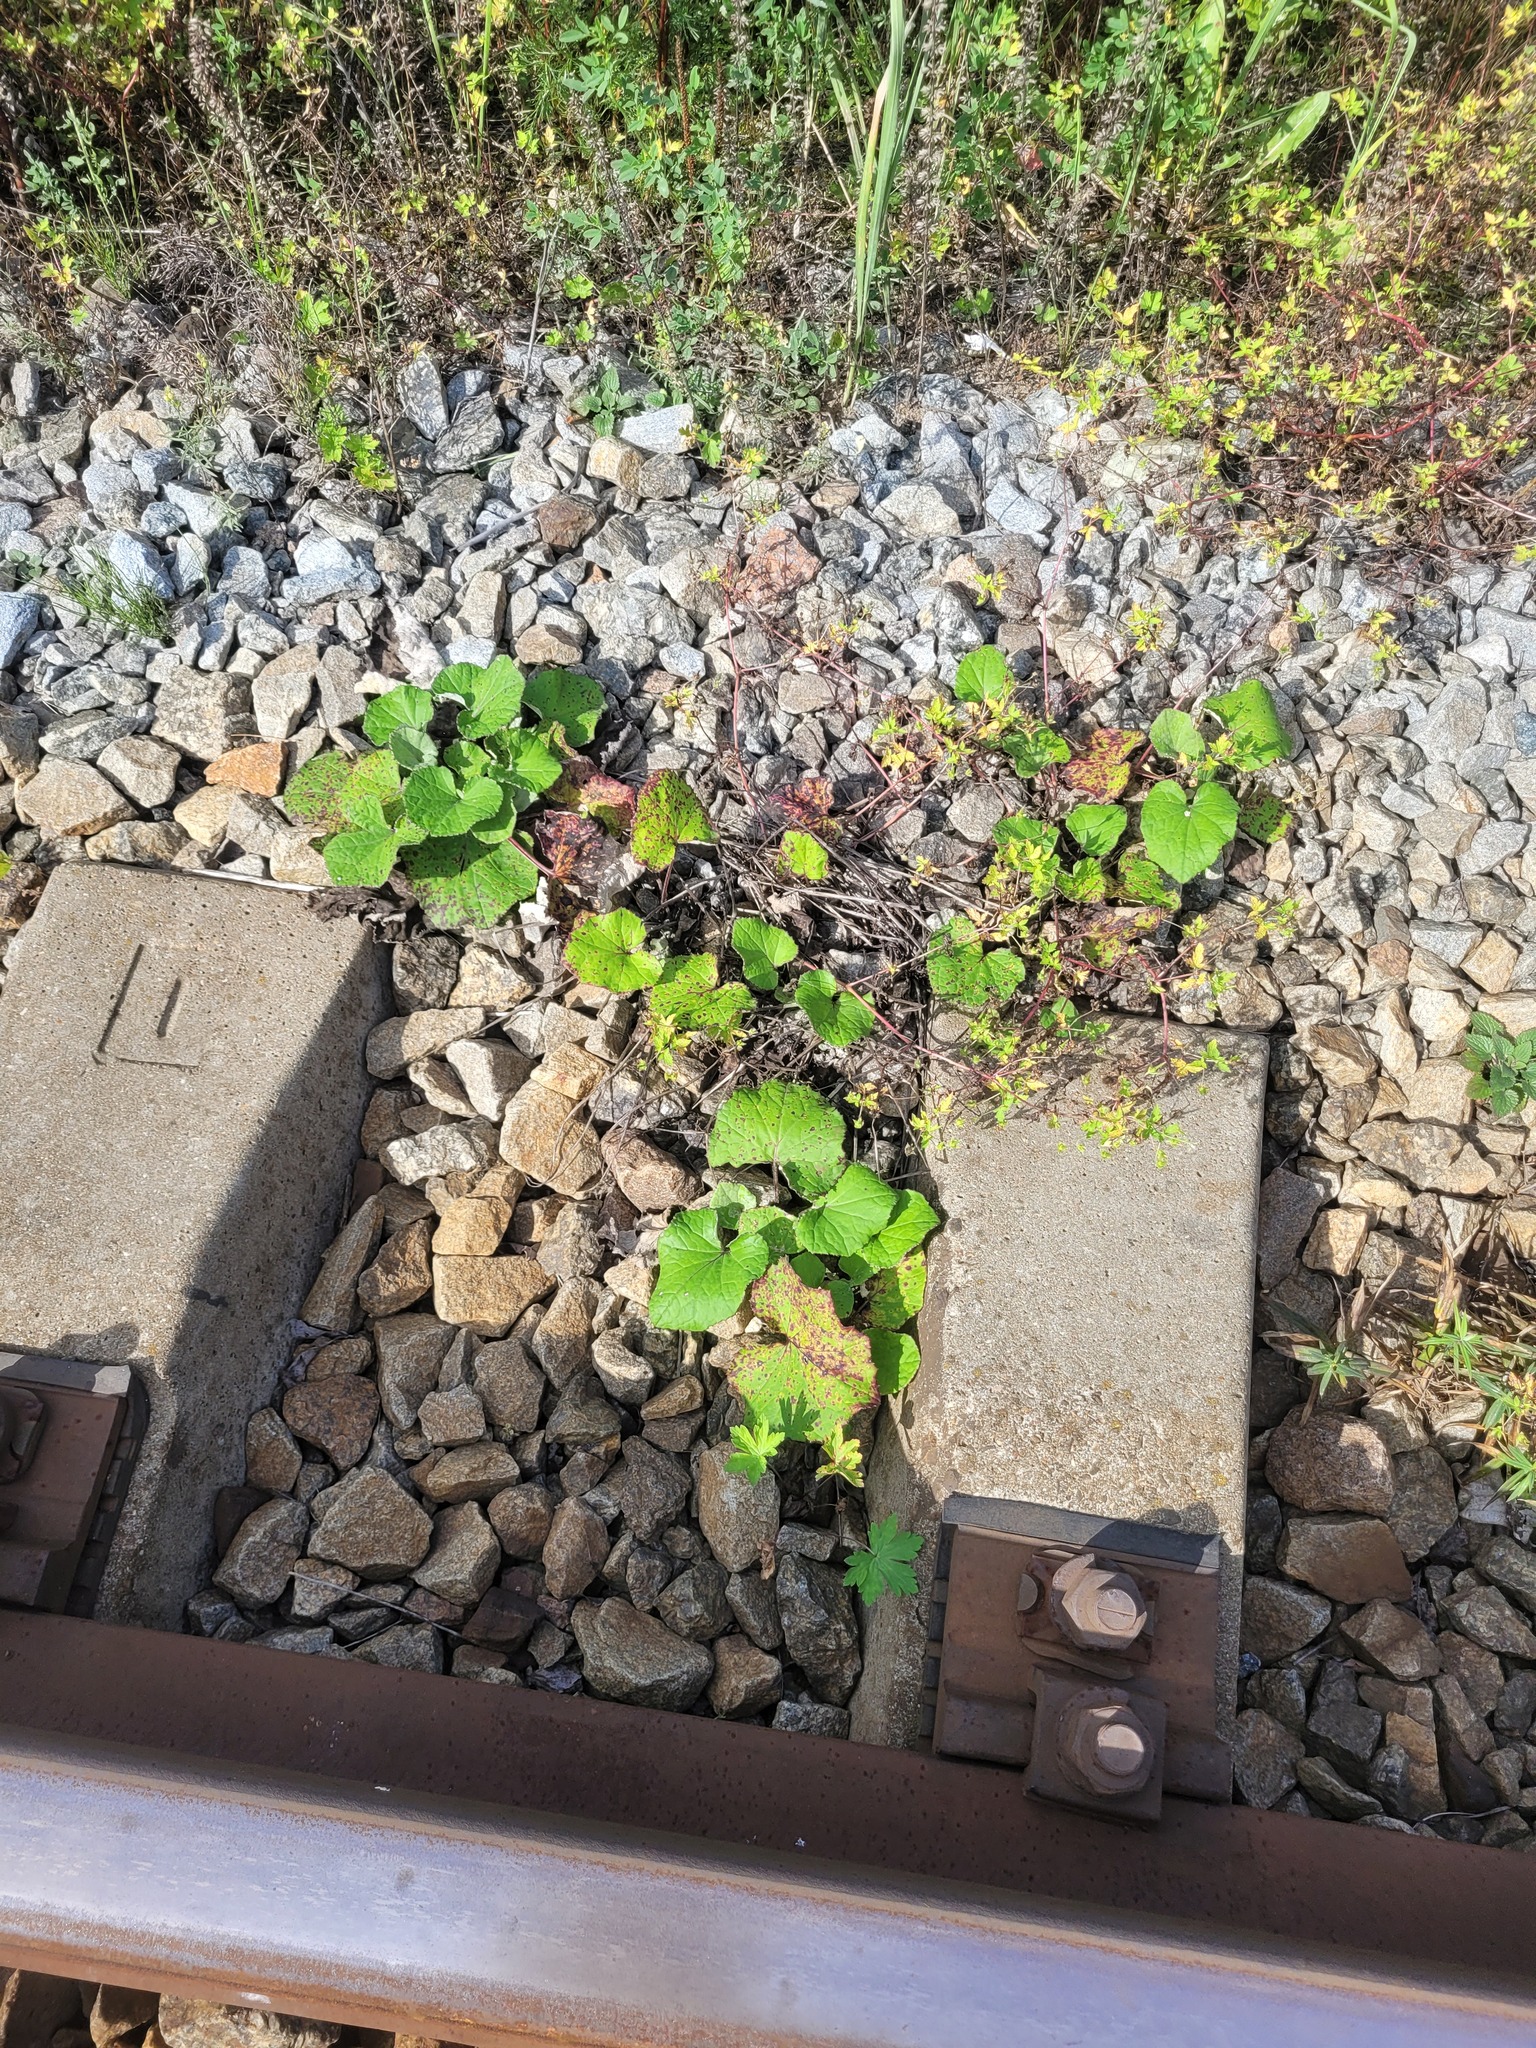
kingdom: Plantae
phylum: Tracheophyta
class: Magnoliopsida
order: Asterales
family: Asteraceae
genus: Tussilago
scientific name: Tussilago farfara
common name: Coltsfoot
